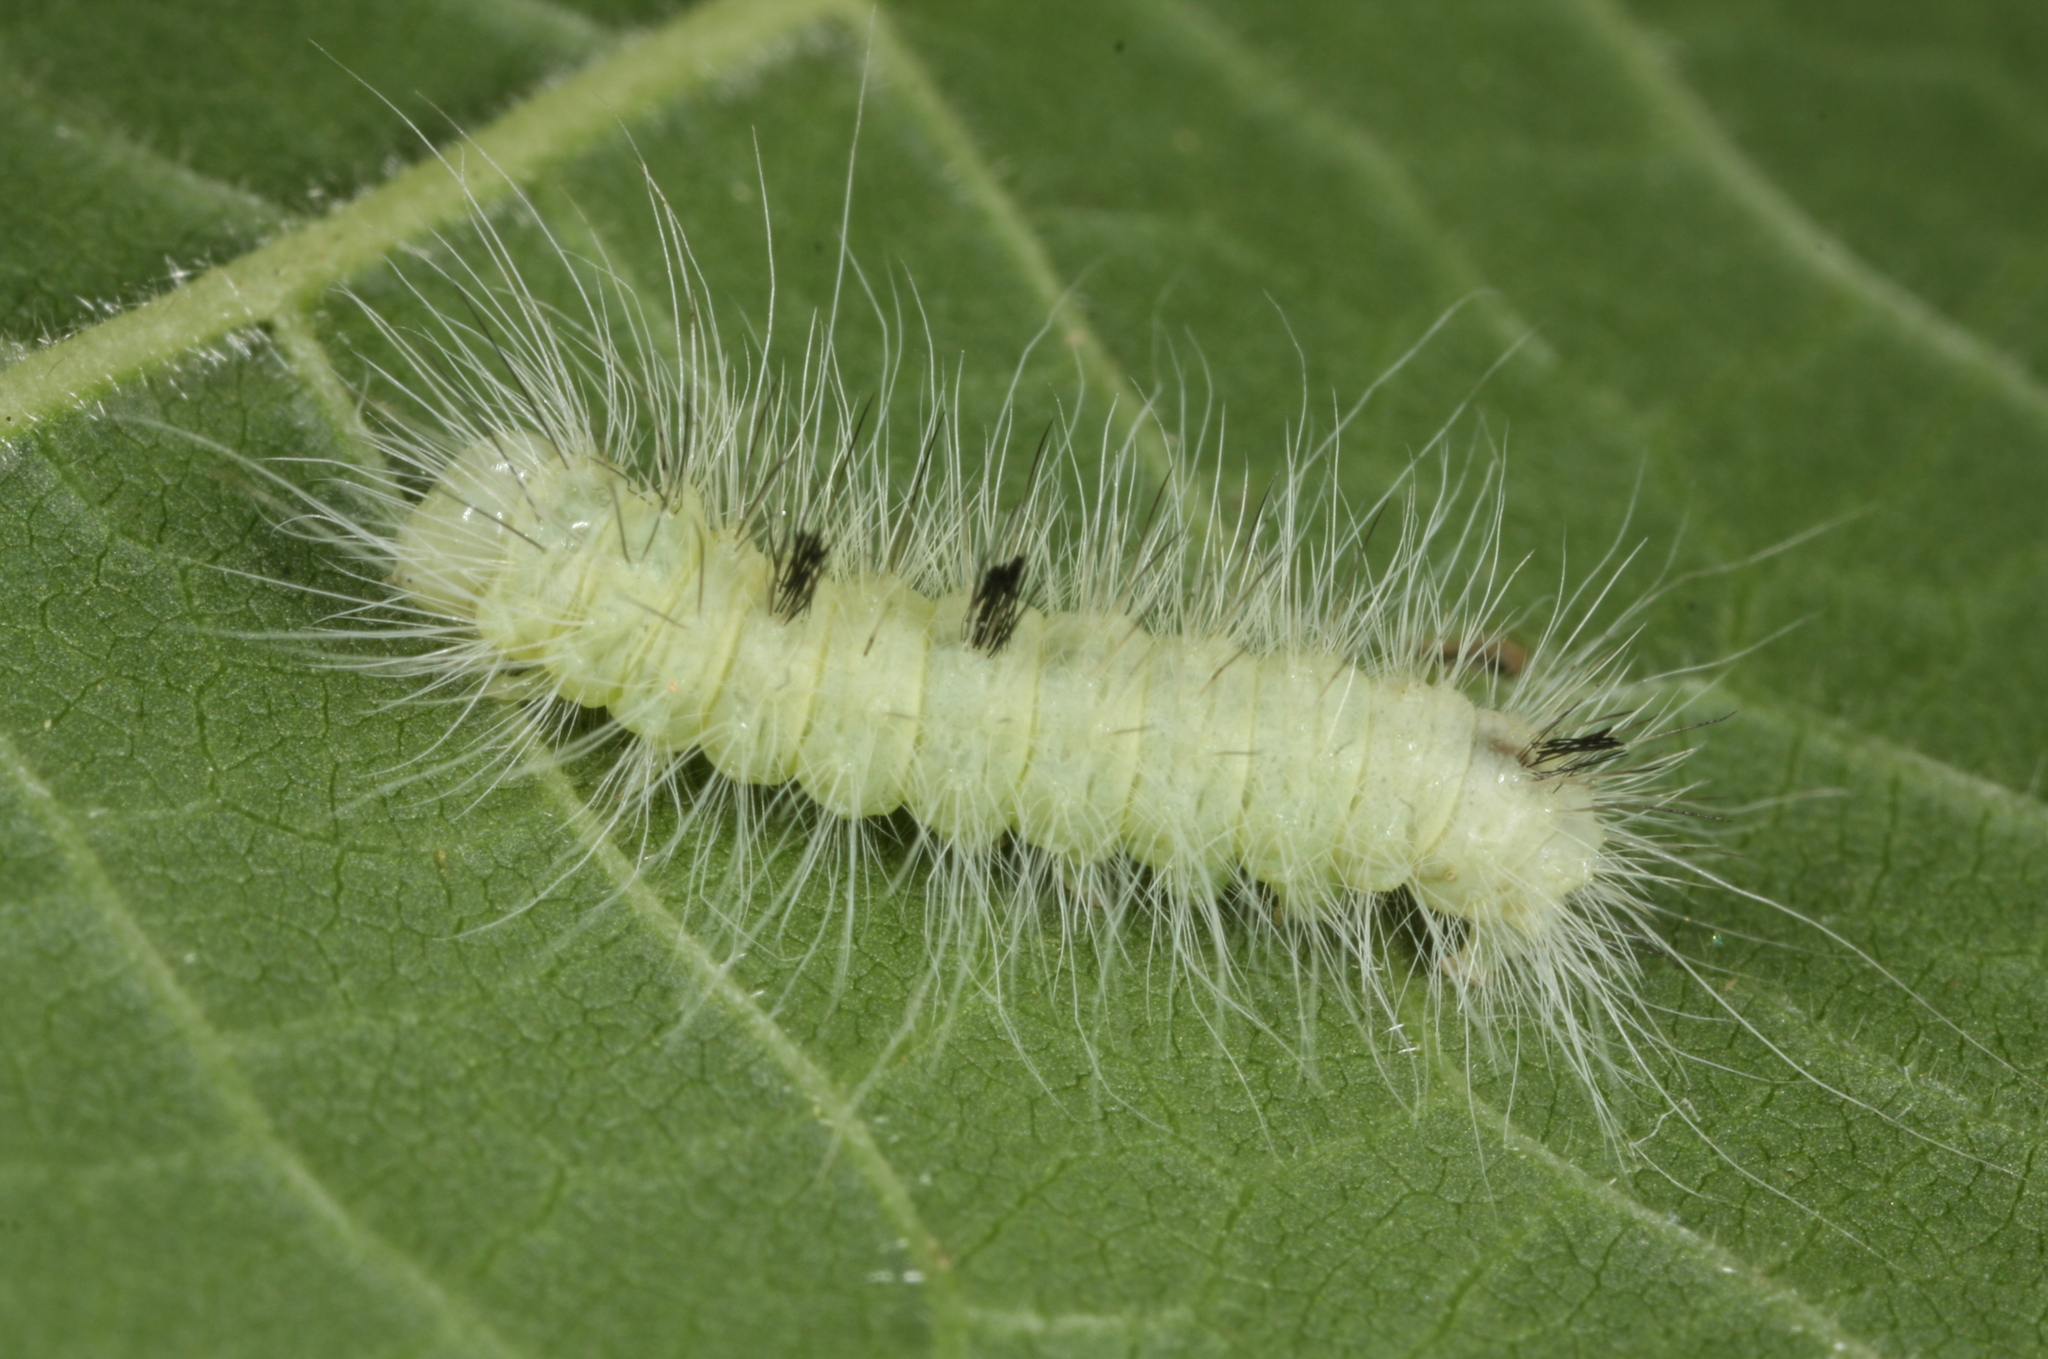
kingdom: Animalia
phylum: Arthropoda
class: Insecta
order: Lepidoptera
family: Noctuidae
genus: Acronicta
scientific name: Acronicta leporina
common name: Miller
